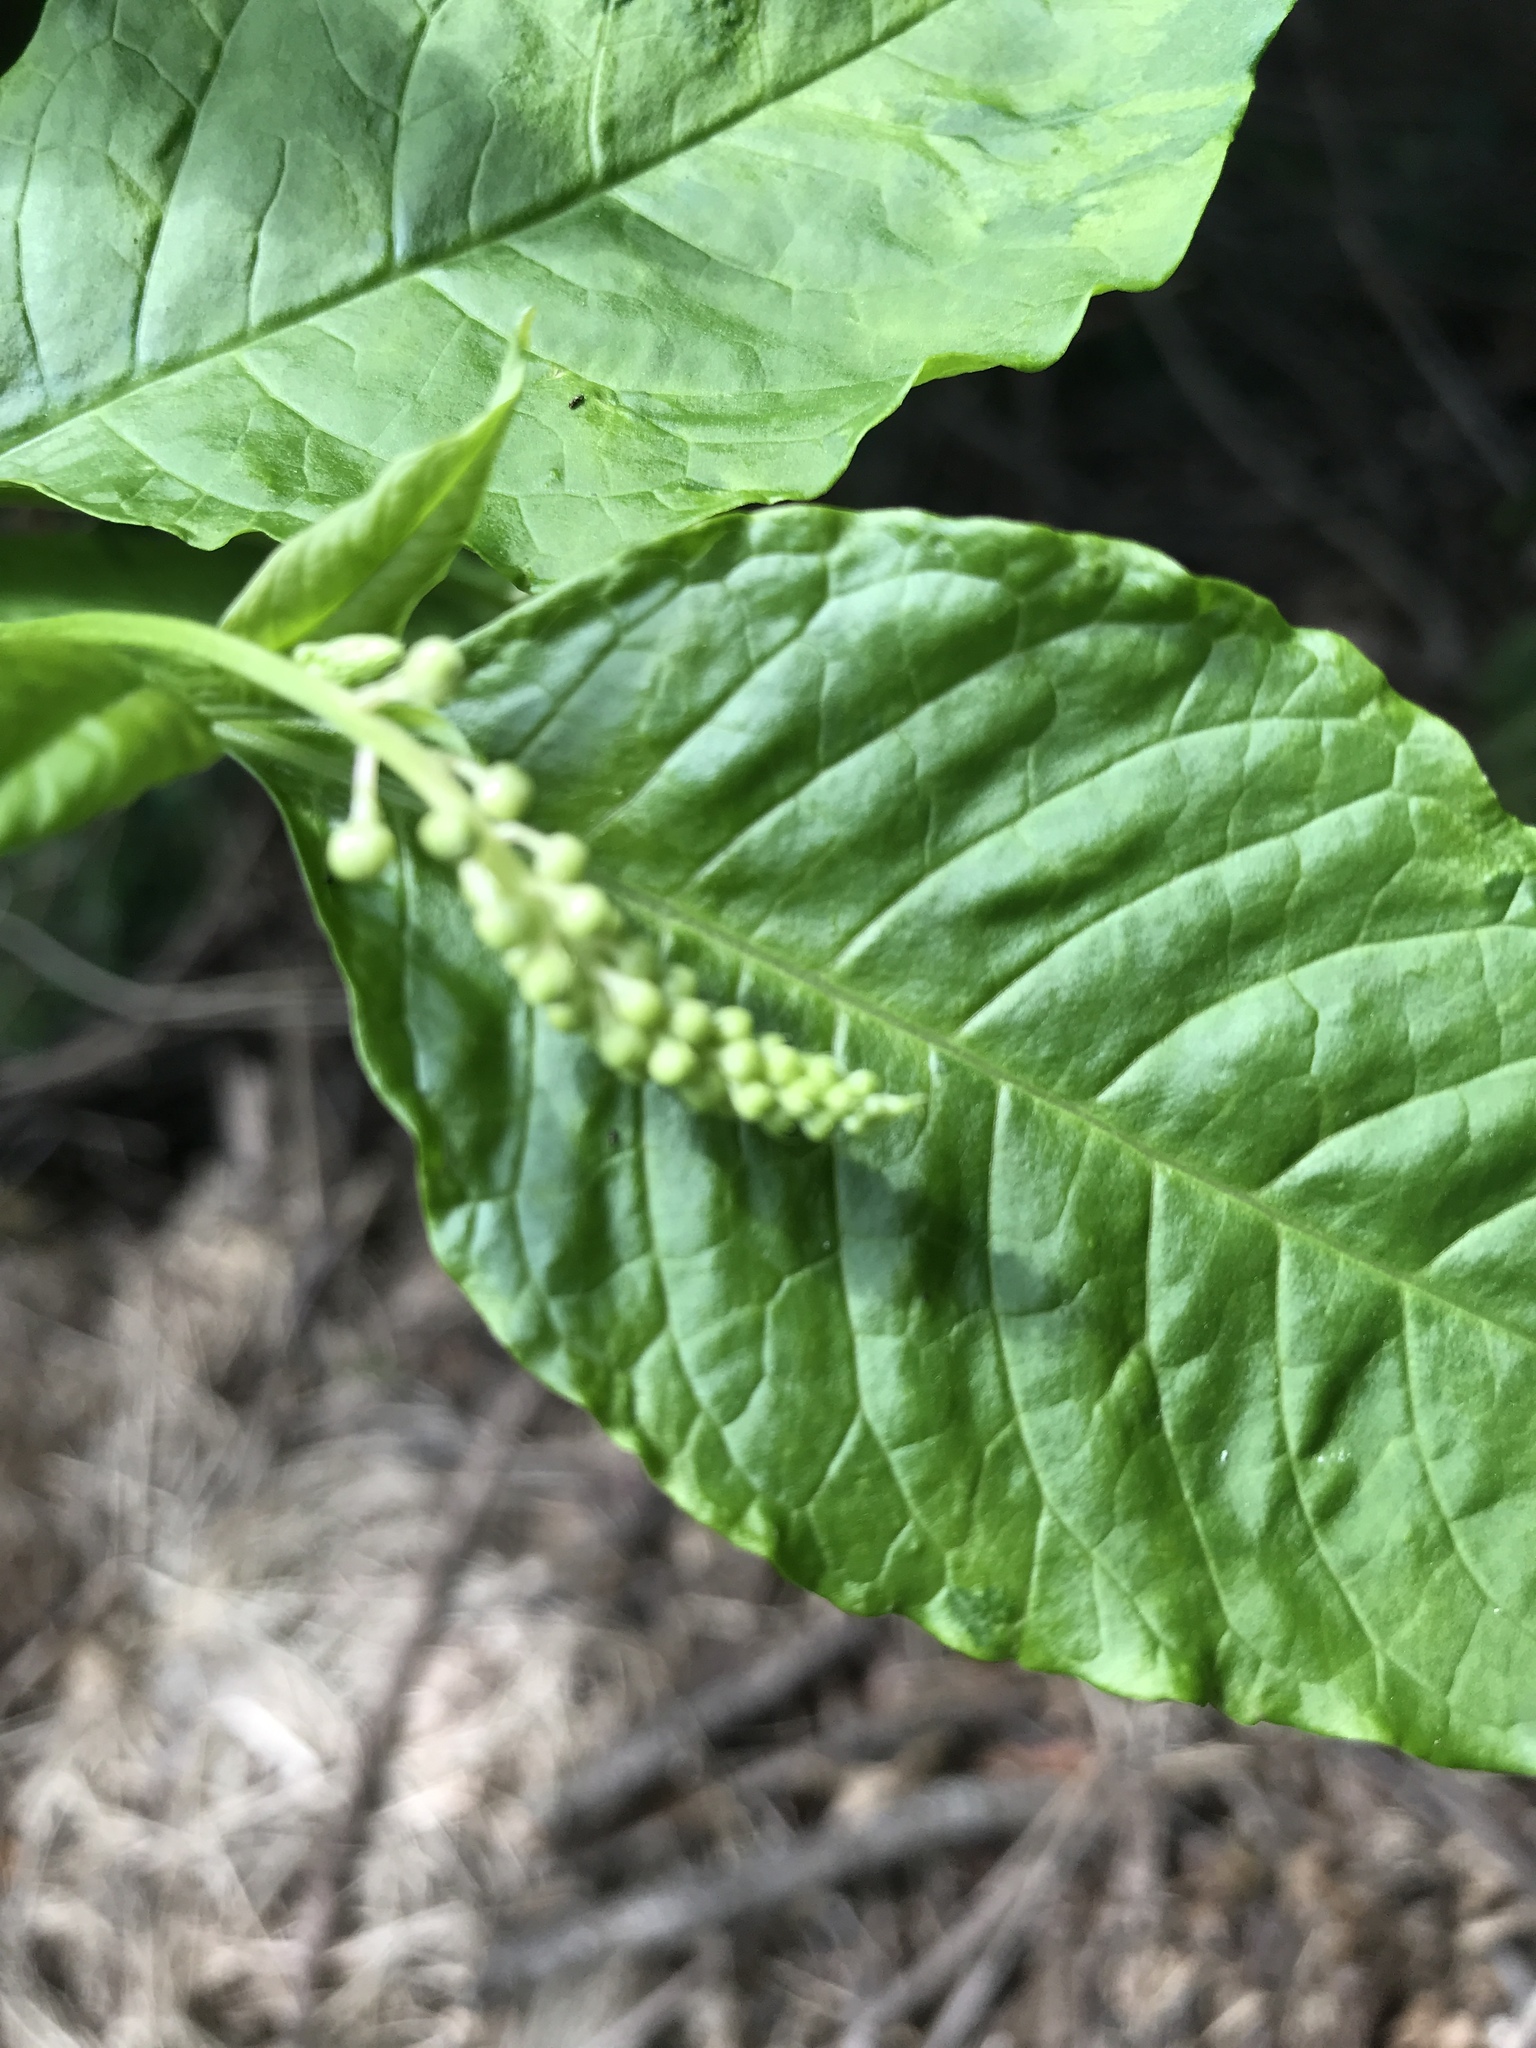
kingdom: Plantae
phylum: Tracheophyta
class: Magnoliopsida
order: Caryophyllales
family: Phytolaccaceae
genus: Phytolacca
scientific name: Phytolacca americana
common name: American pokeweed
